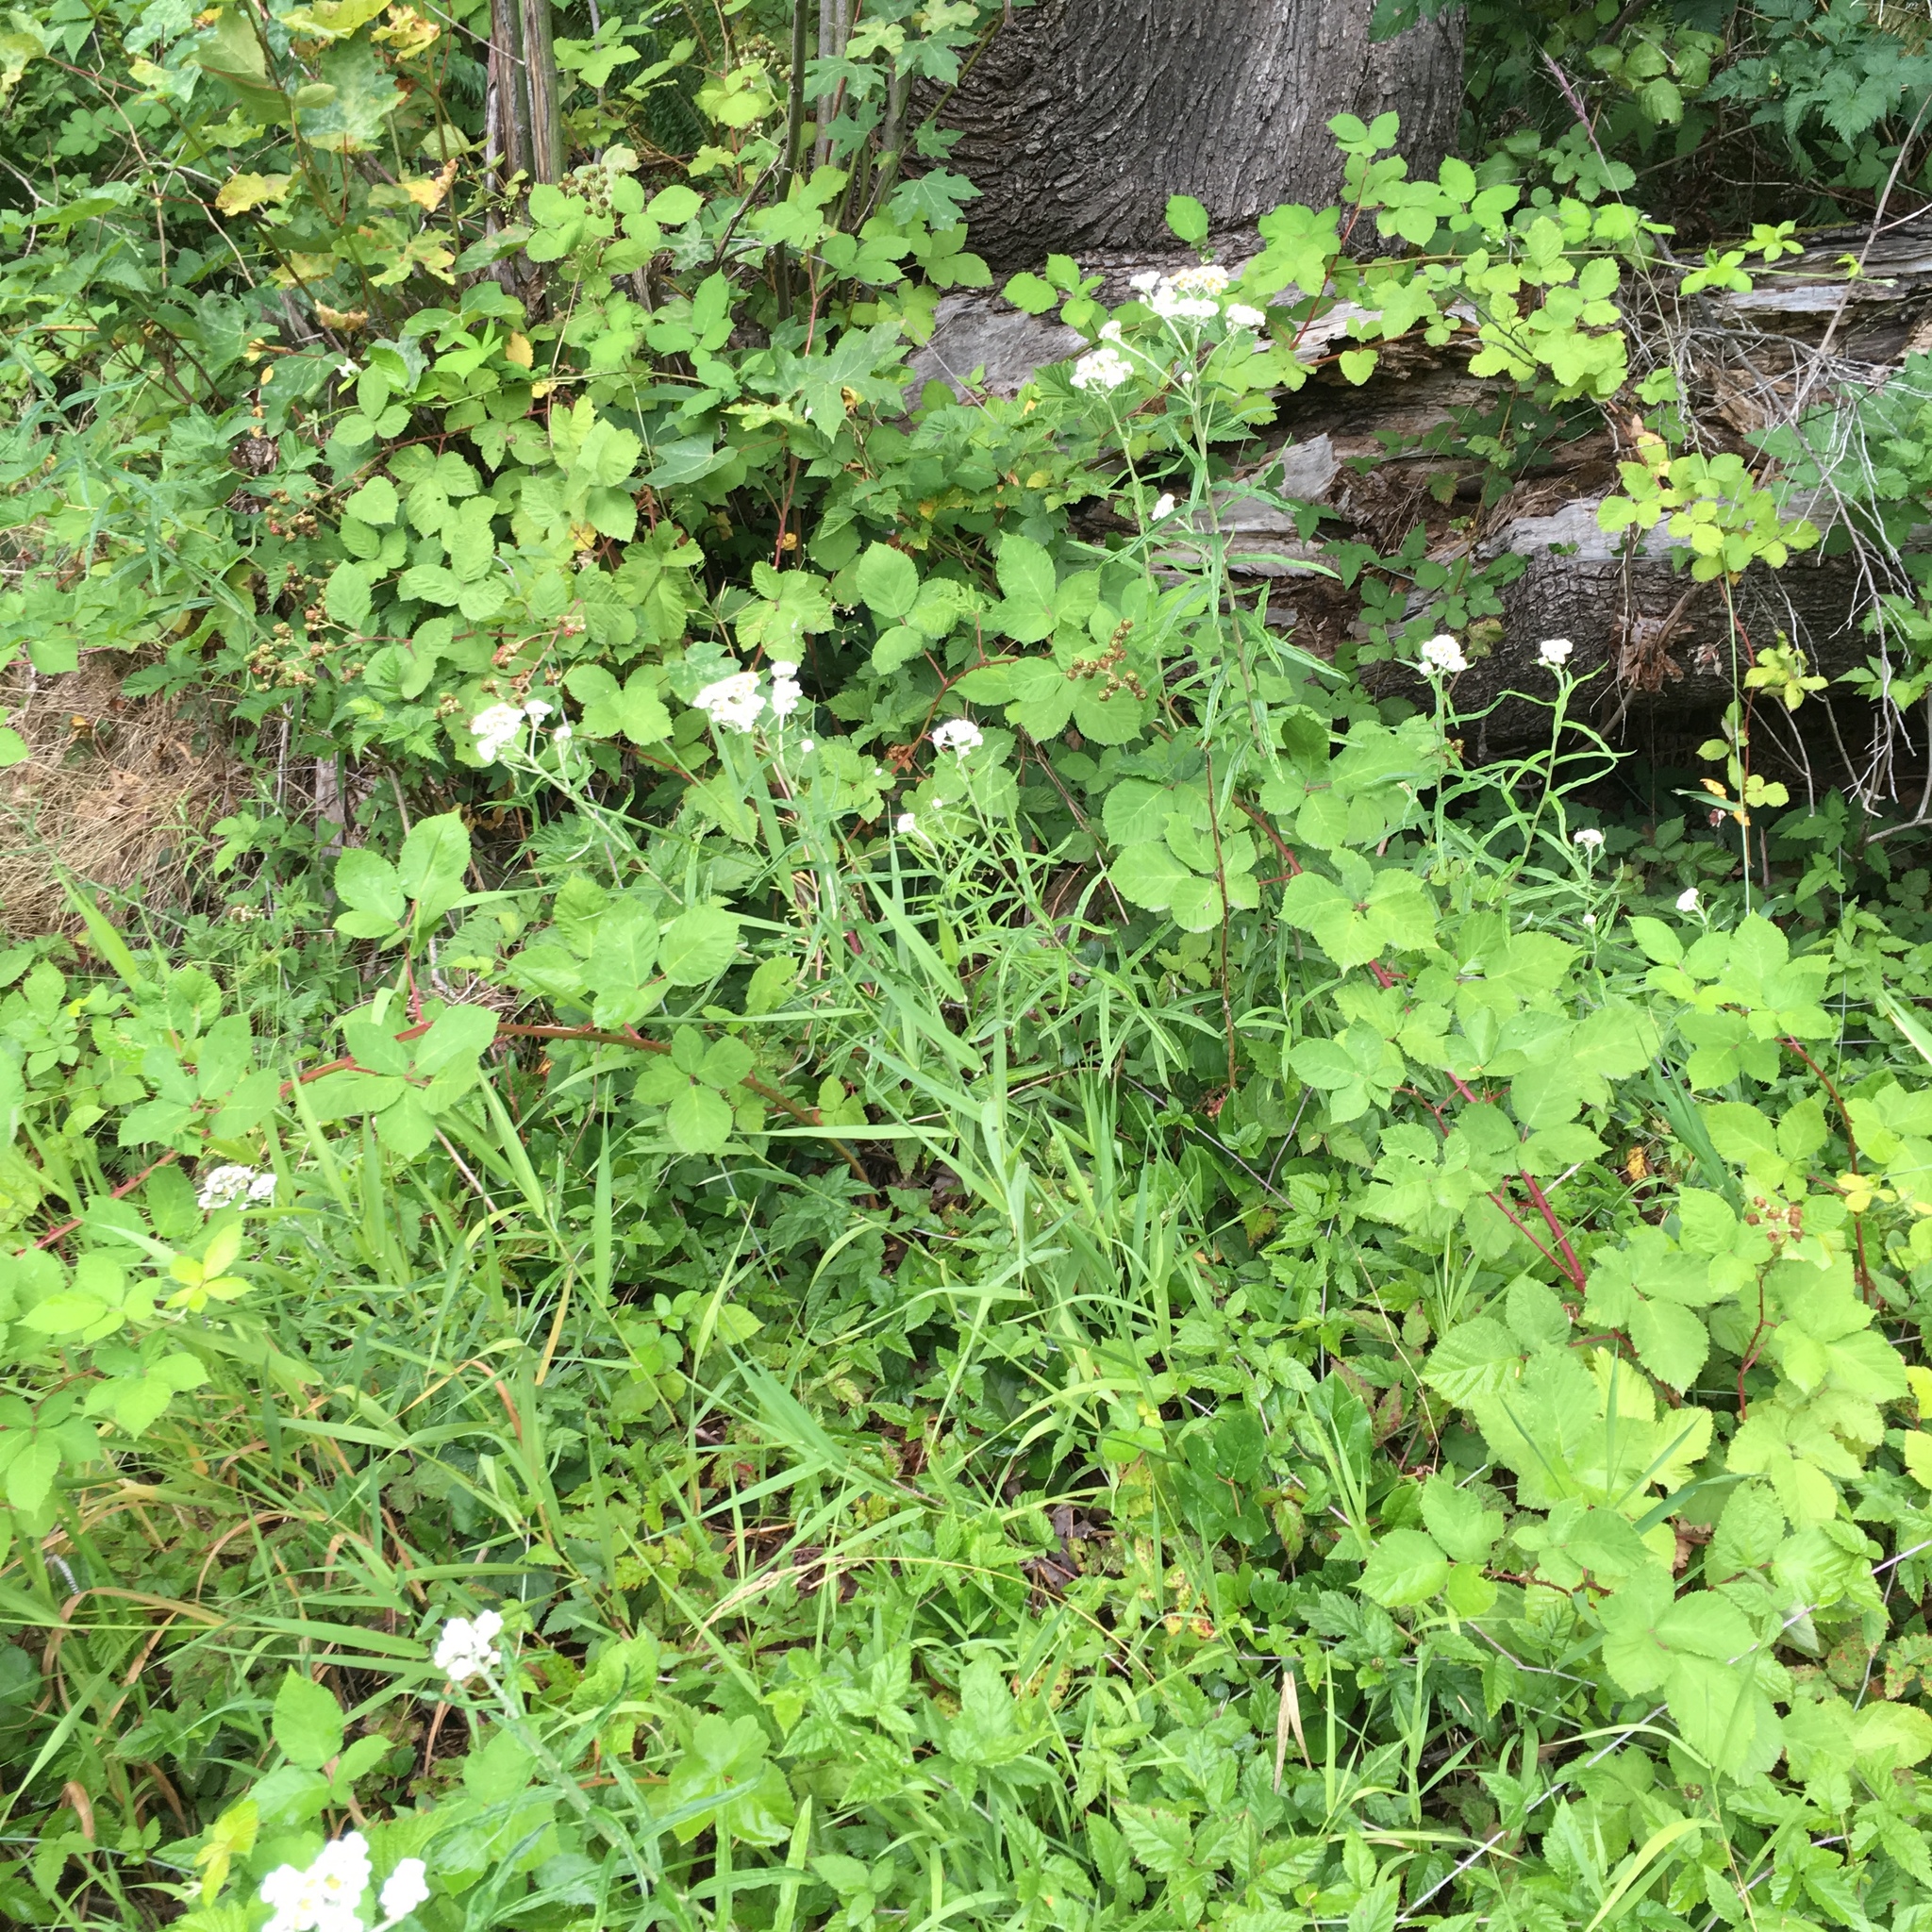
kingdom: Plantae
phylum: Tracheophyta
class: Magnoliopsida
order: Asterales
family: Asteraceae
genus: Anaphalis
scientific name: Anaphalis margaritacea
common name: Pearly everlasting
